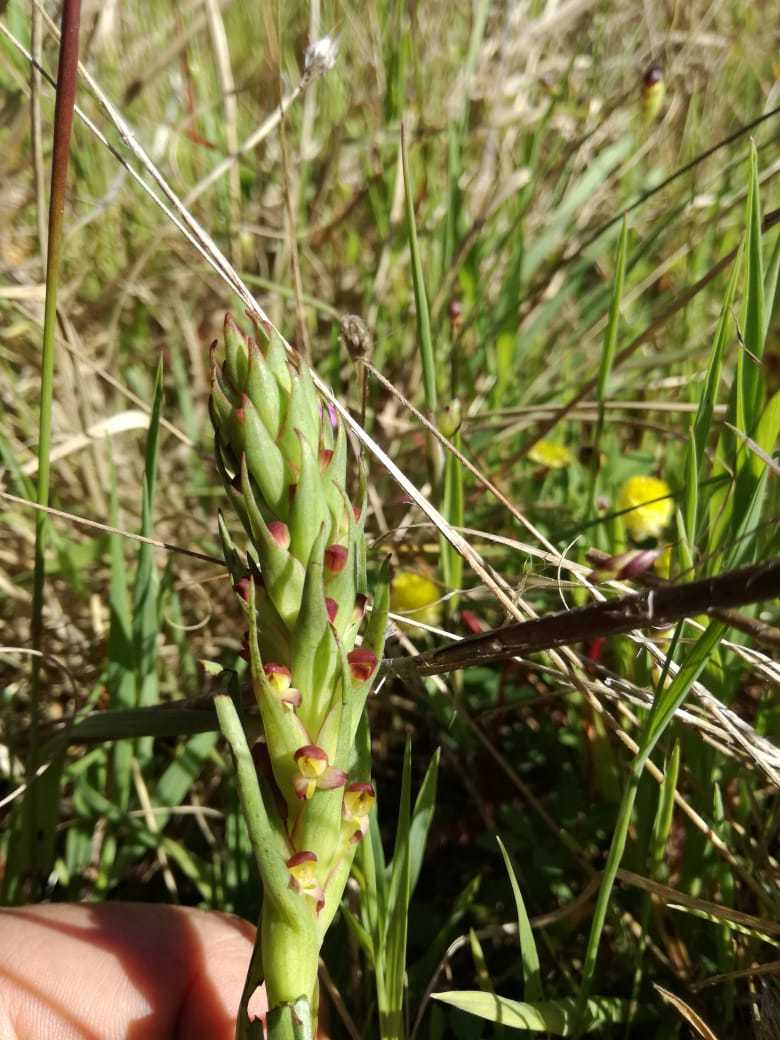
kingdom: Plantae
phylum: Tracheophyta
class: Liliopsida
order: Asparagales
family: Orchidaceae
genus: Disa
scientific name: Disa bracteata
